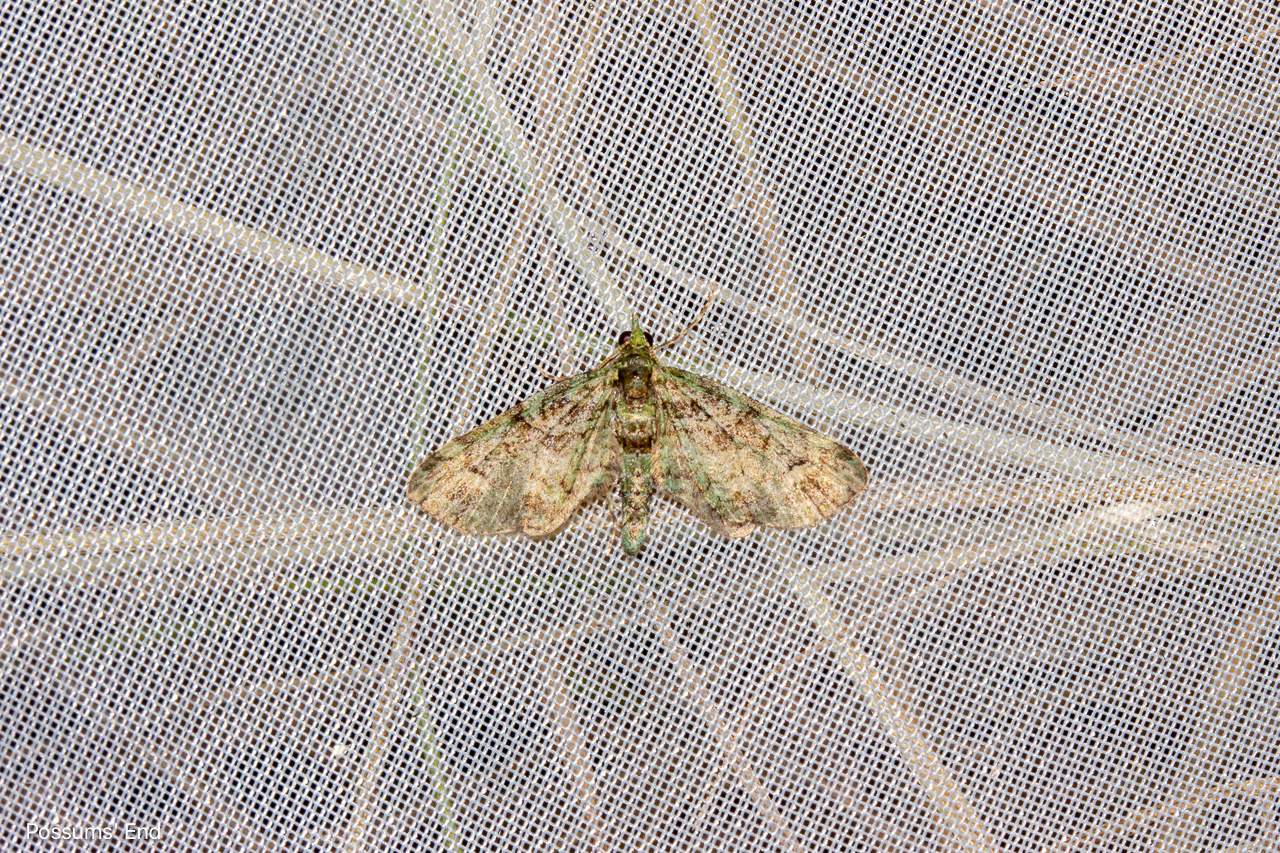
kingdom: Animalia
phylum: Arthropoda
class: Insecta
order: Lepidoptera
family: Geometridae
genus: Idaea
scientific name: Idaea mutanda
